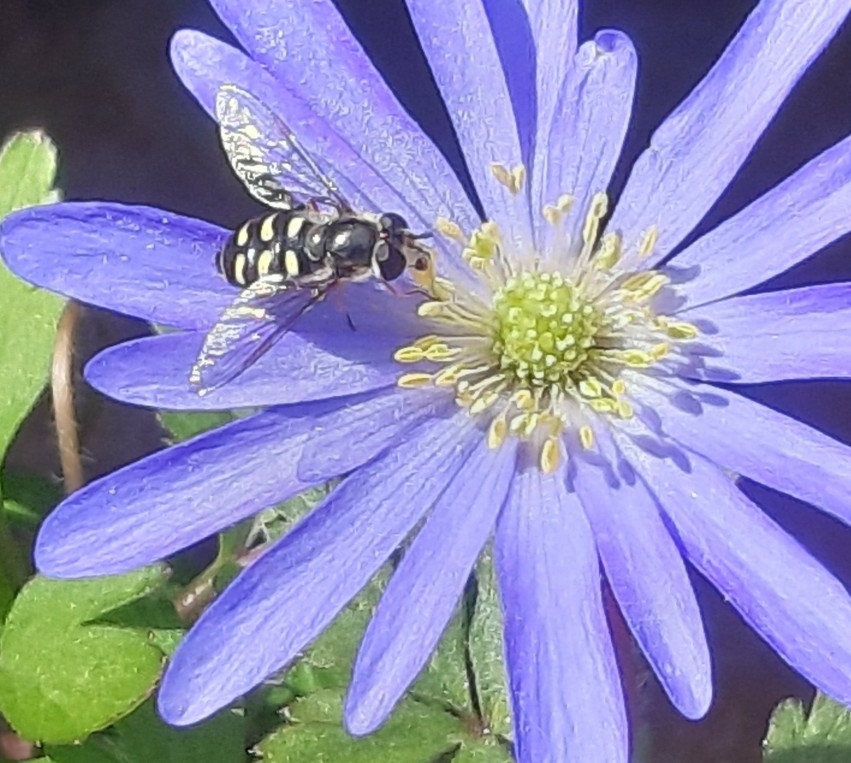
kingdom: Animalia
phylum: Arthropoda
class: Insecta
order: Diptera
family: Syrphidae
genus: Eupeodes
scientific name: Eupeodes luniger
